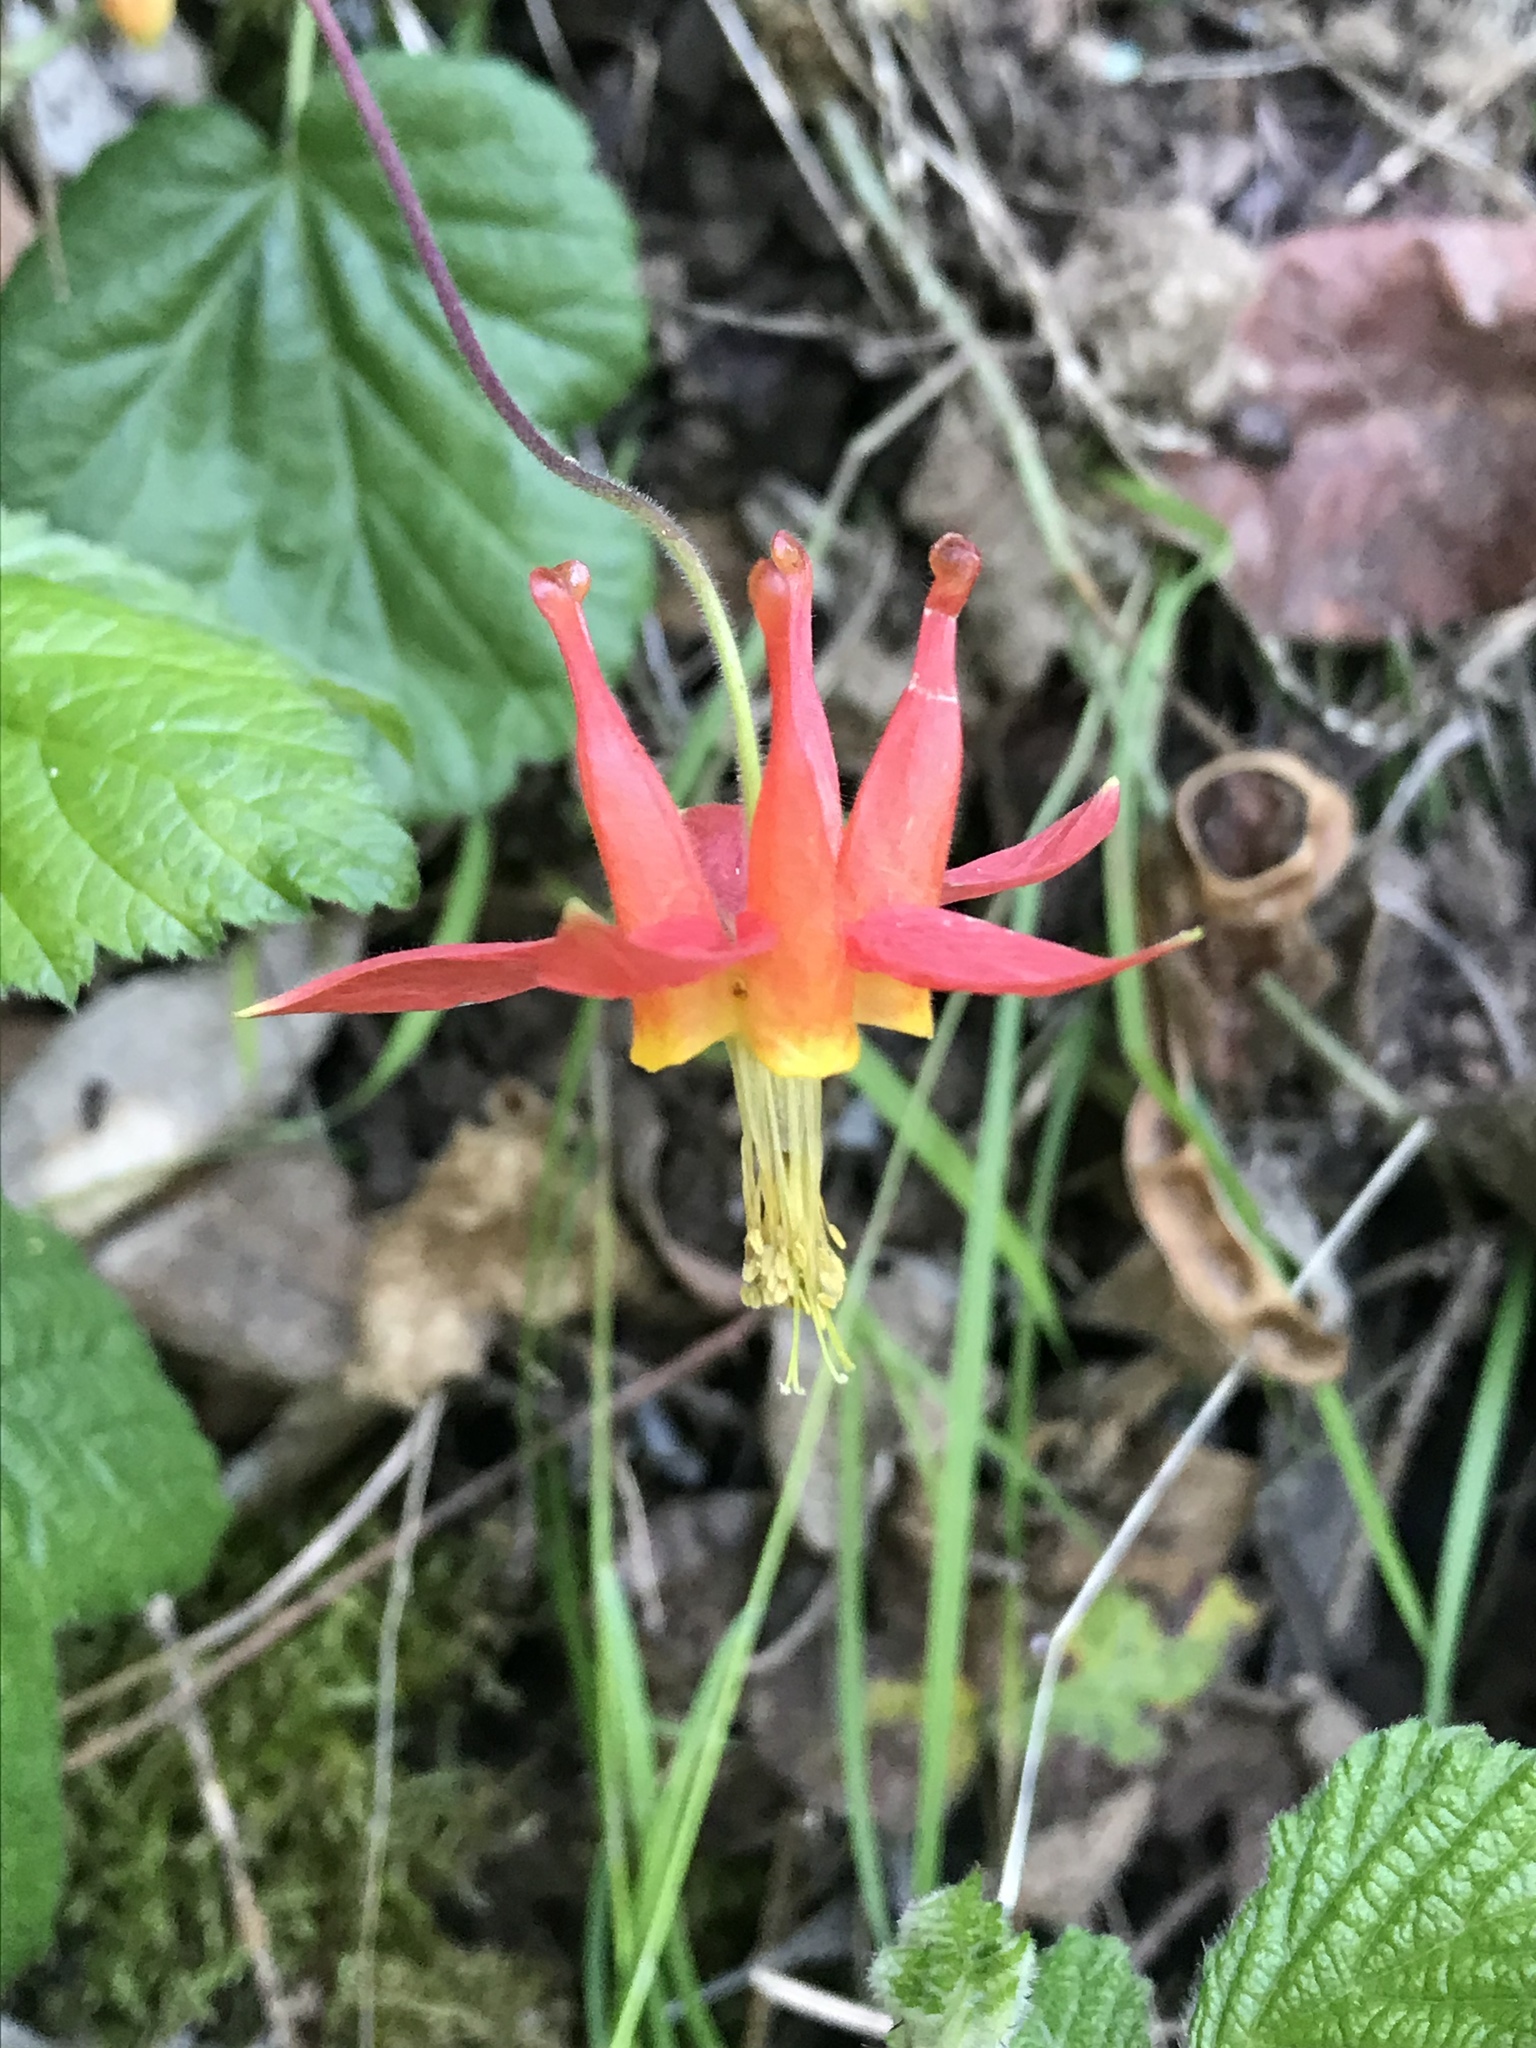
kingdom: Plantae
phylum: Tracheophyta
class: Magnoliopsida
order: Ranunculales
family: Ranunculaceae
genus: Aquilegia
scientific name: Aquilegia formosa
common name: Sitka columbine
